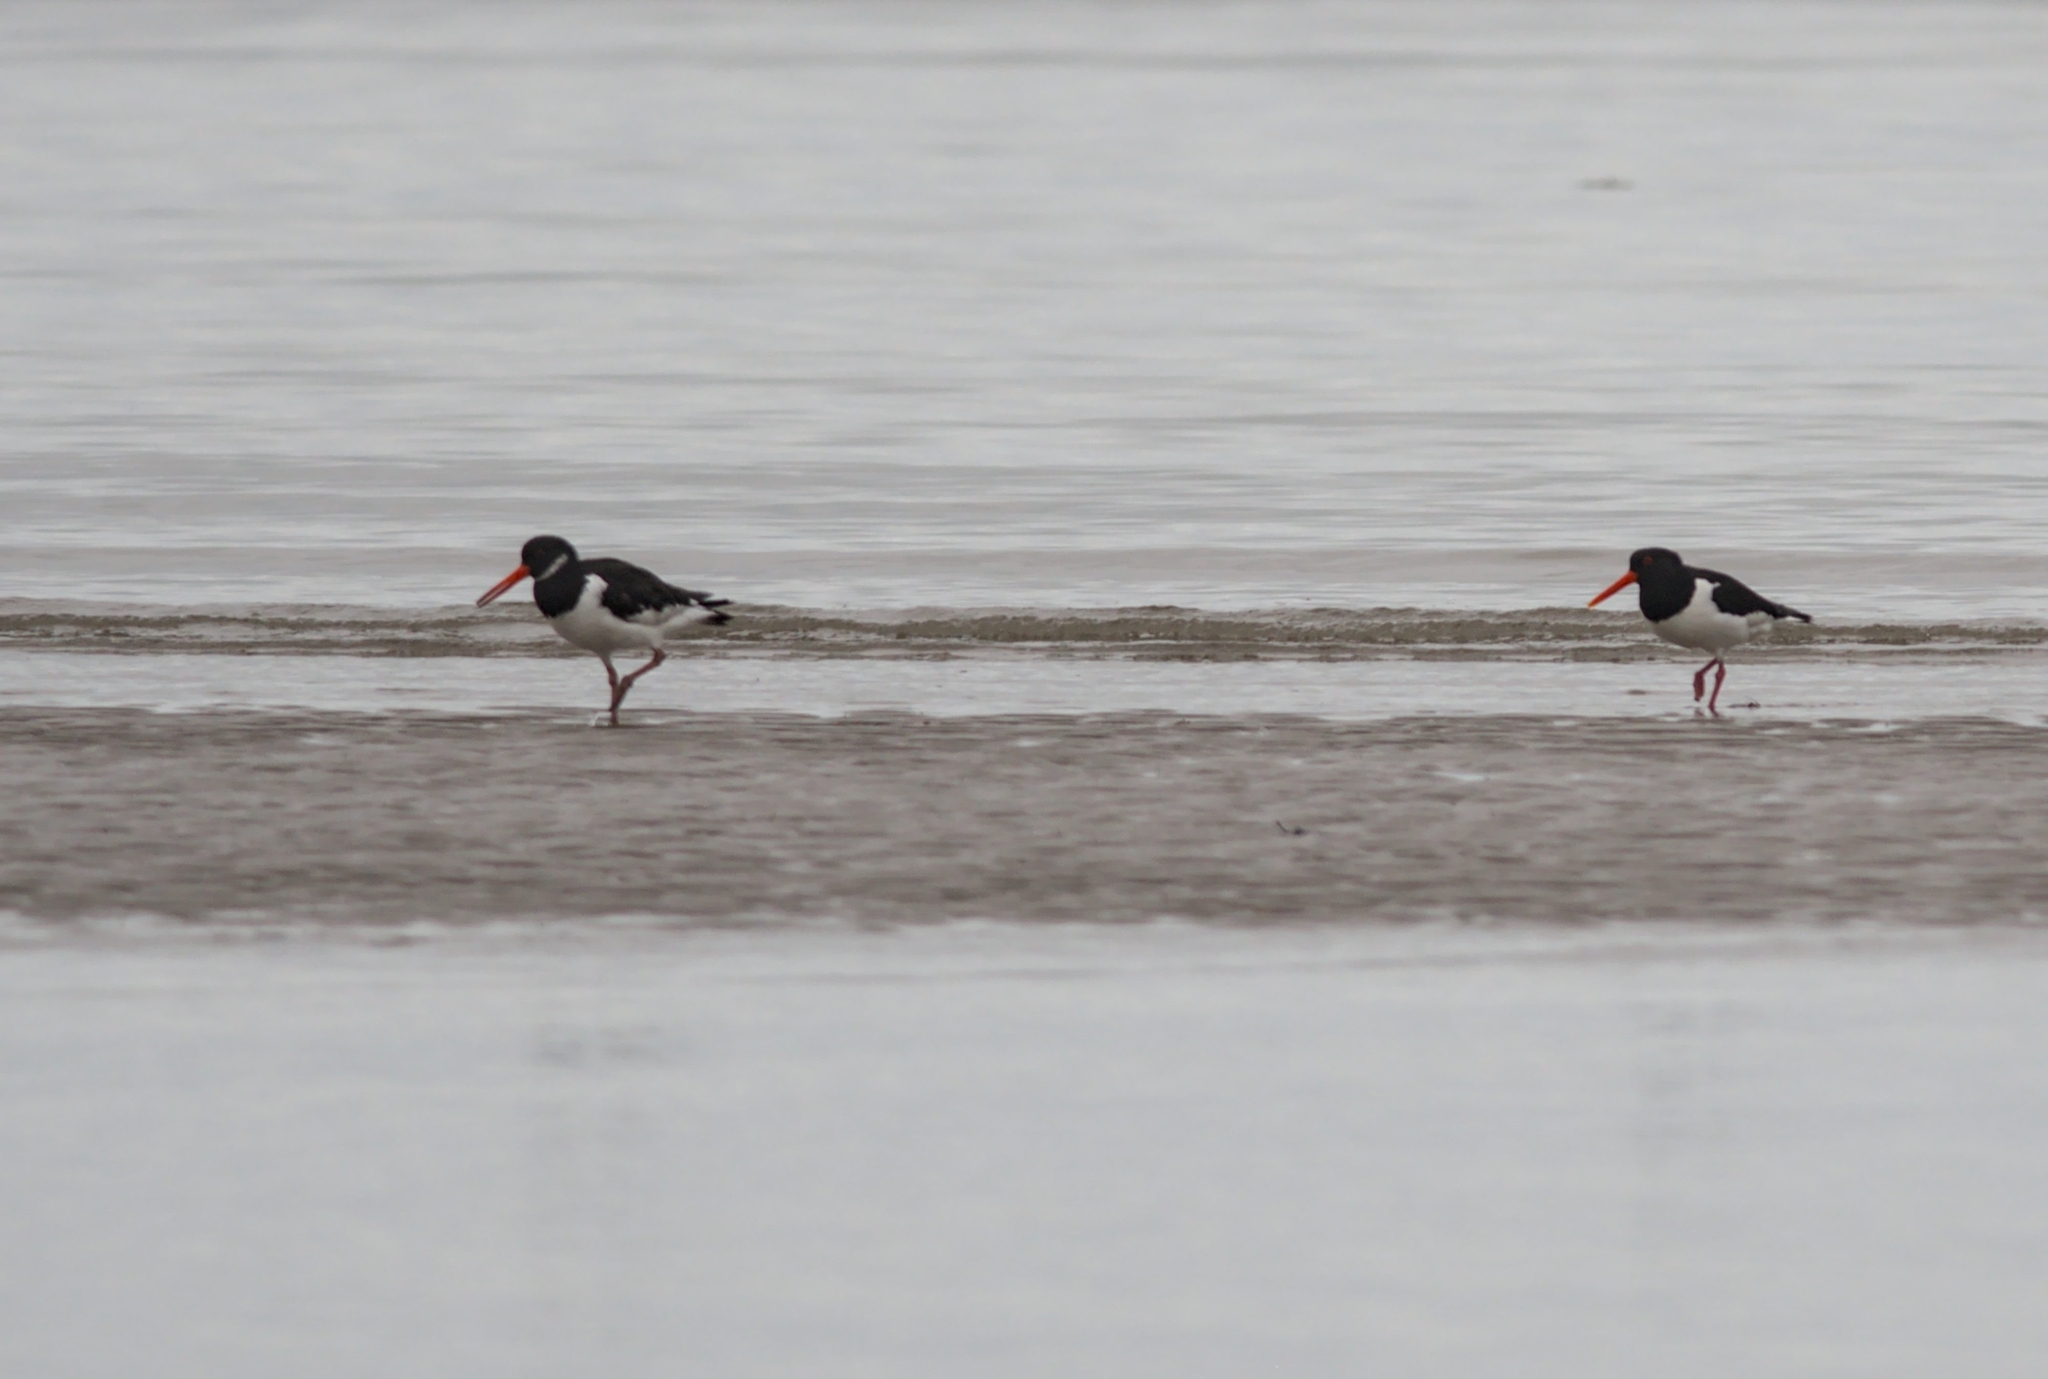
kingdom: Animalia
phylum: Chordata
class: Aves
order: Charadriiformes
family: Haematopodidae
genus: Haematopus
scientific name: Haematopus ostralegus
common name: Eurasian oystercatcher
